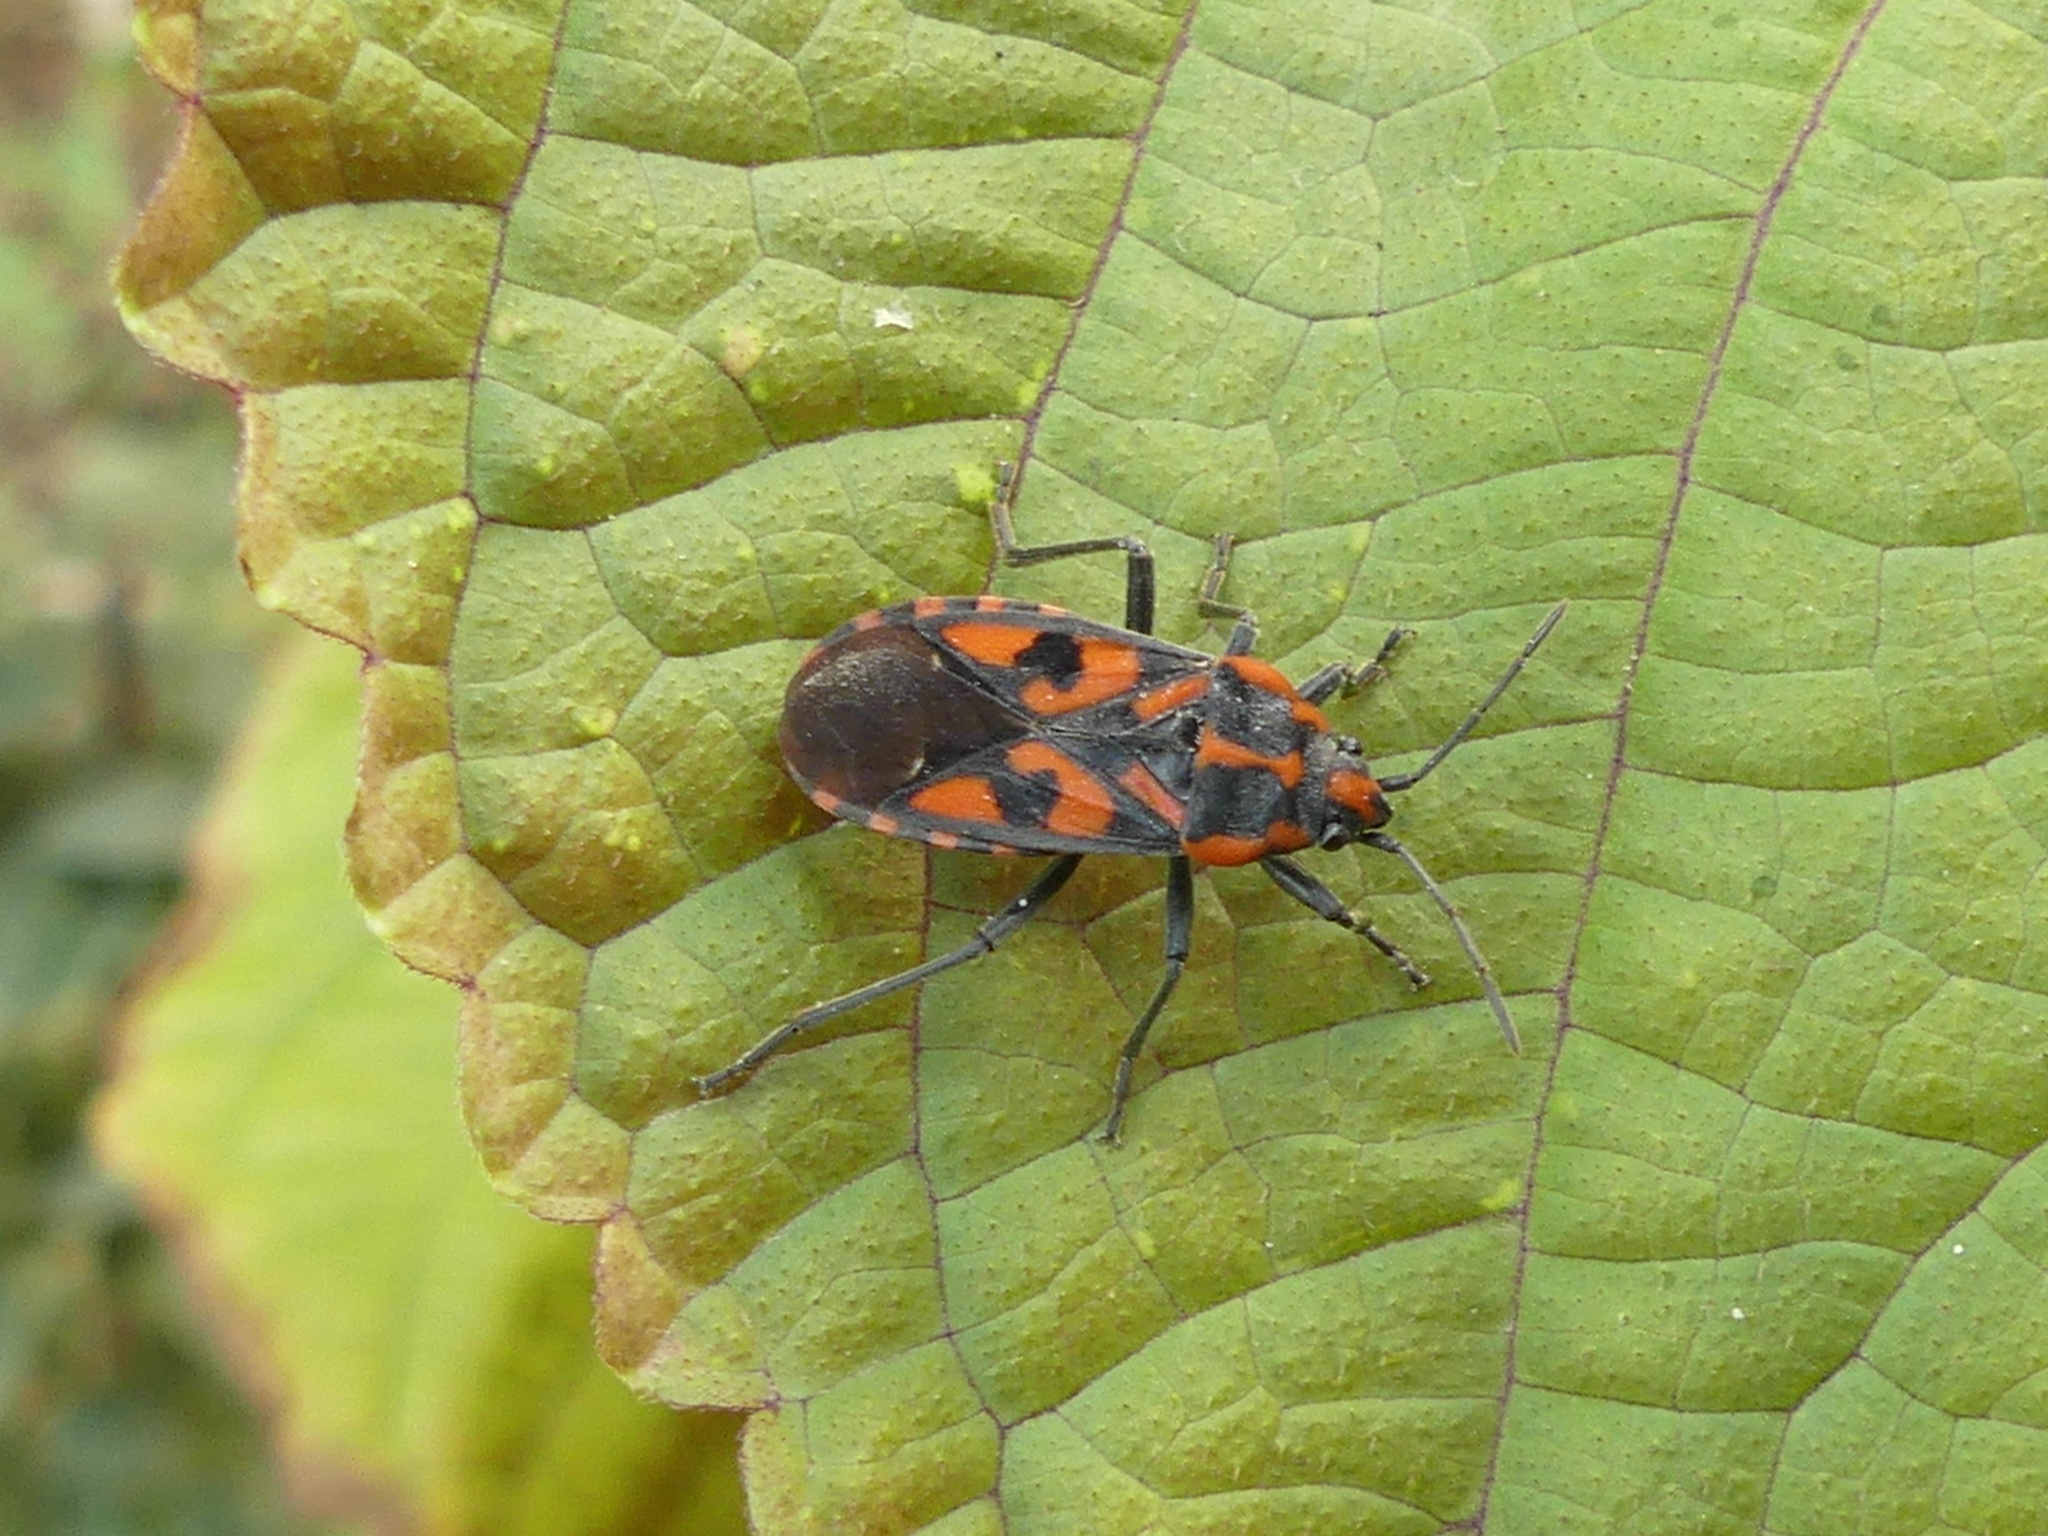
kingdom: Animalia
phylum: Arthropoda
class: Insecta
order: Hemiptera
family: Lygaeidae
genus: Spilostethus
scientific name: Spilostethus saxatilis
